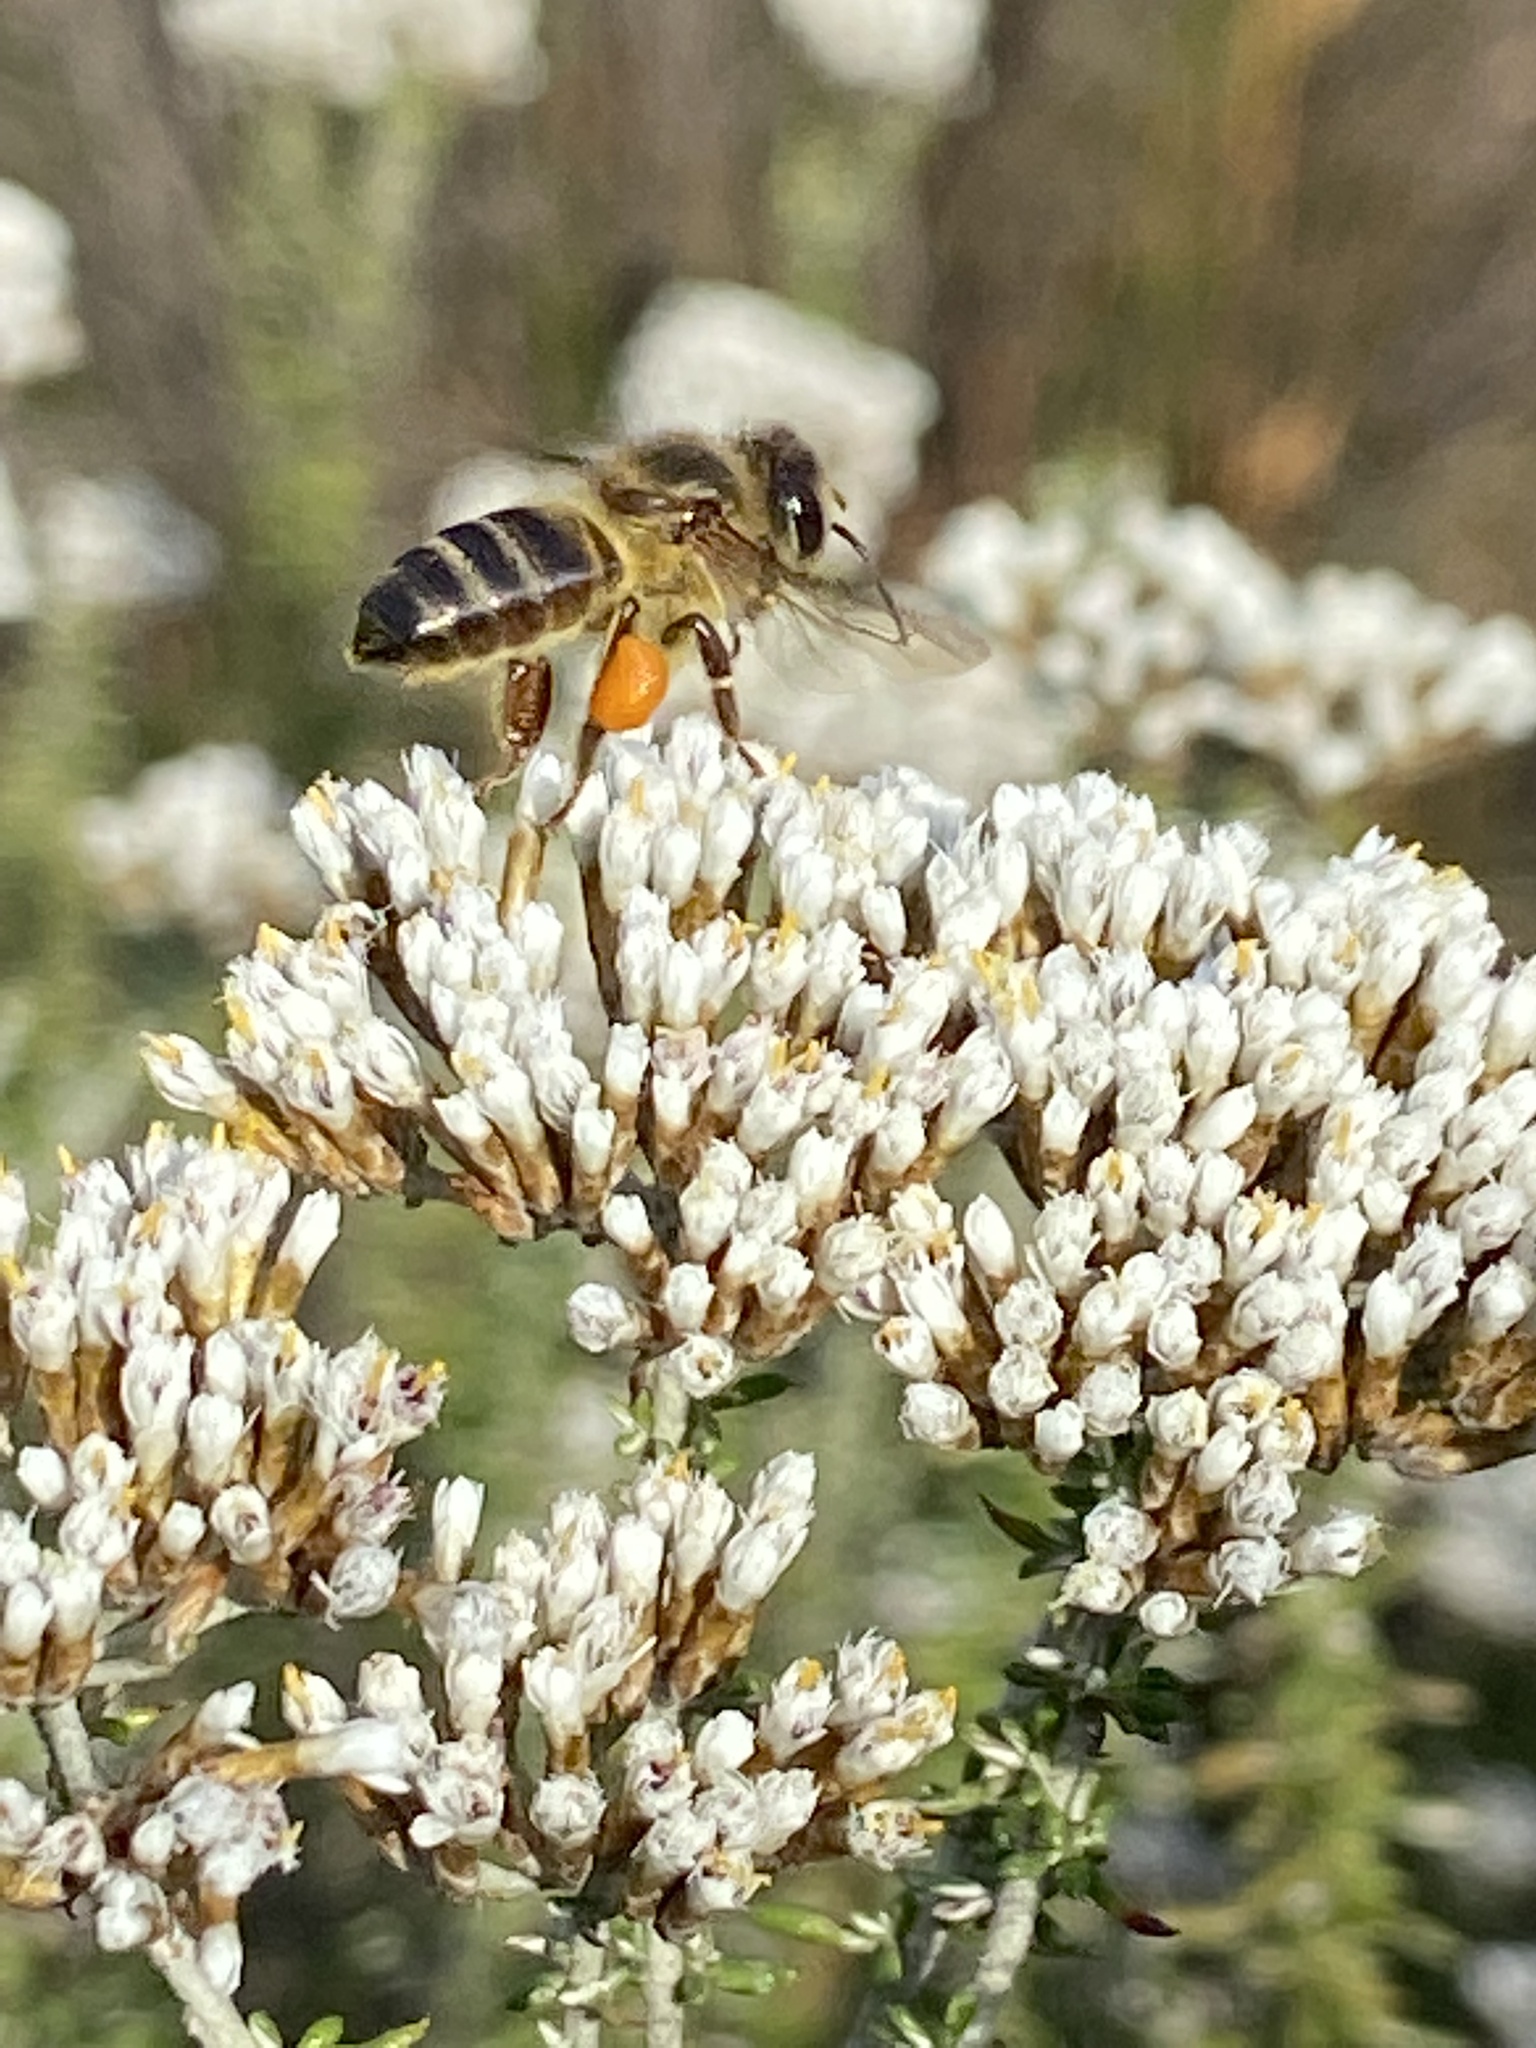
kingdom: Animalia
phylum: Arthropoda
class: Insecta
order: Hymenoptera
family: Apidae
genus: Apis
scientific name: Apis mellifera
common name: Honey bee
